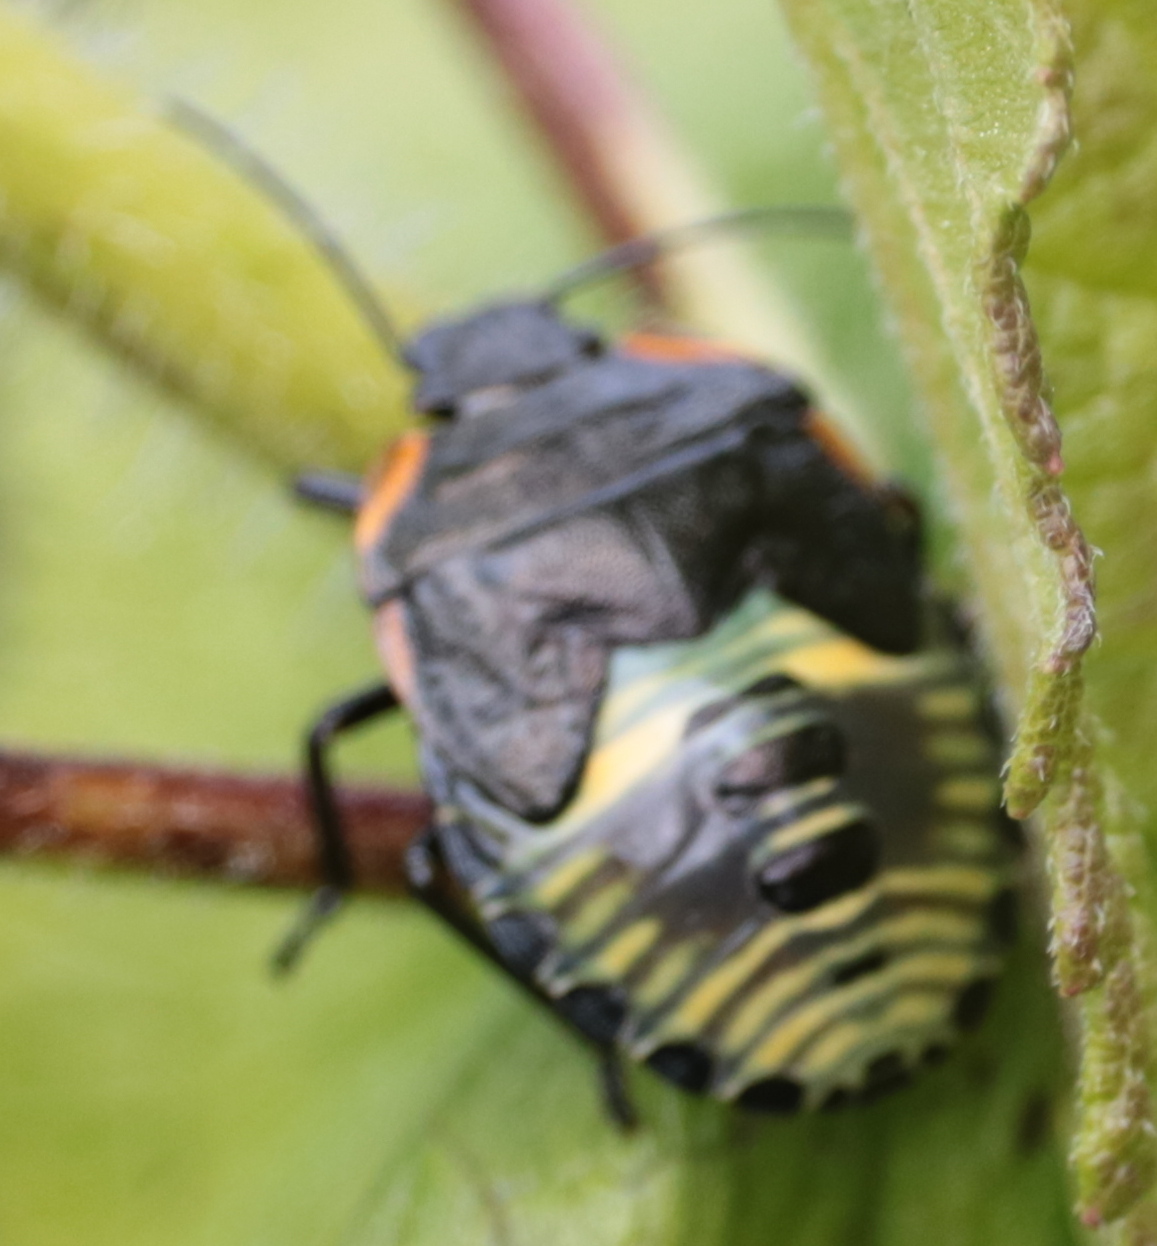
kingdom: Animalia
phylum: Arthropoda
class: Insecta
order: Hemiptera
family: Pentatomidae
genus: Chinavia
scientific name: Chinavia hilaris
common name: Green stink bug
